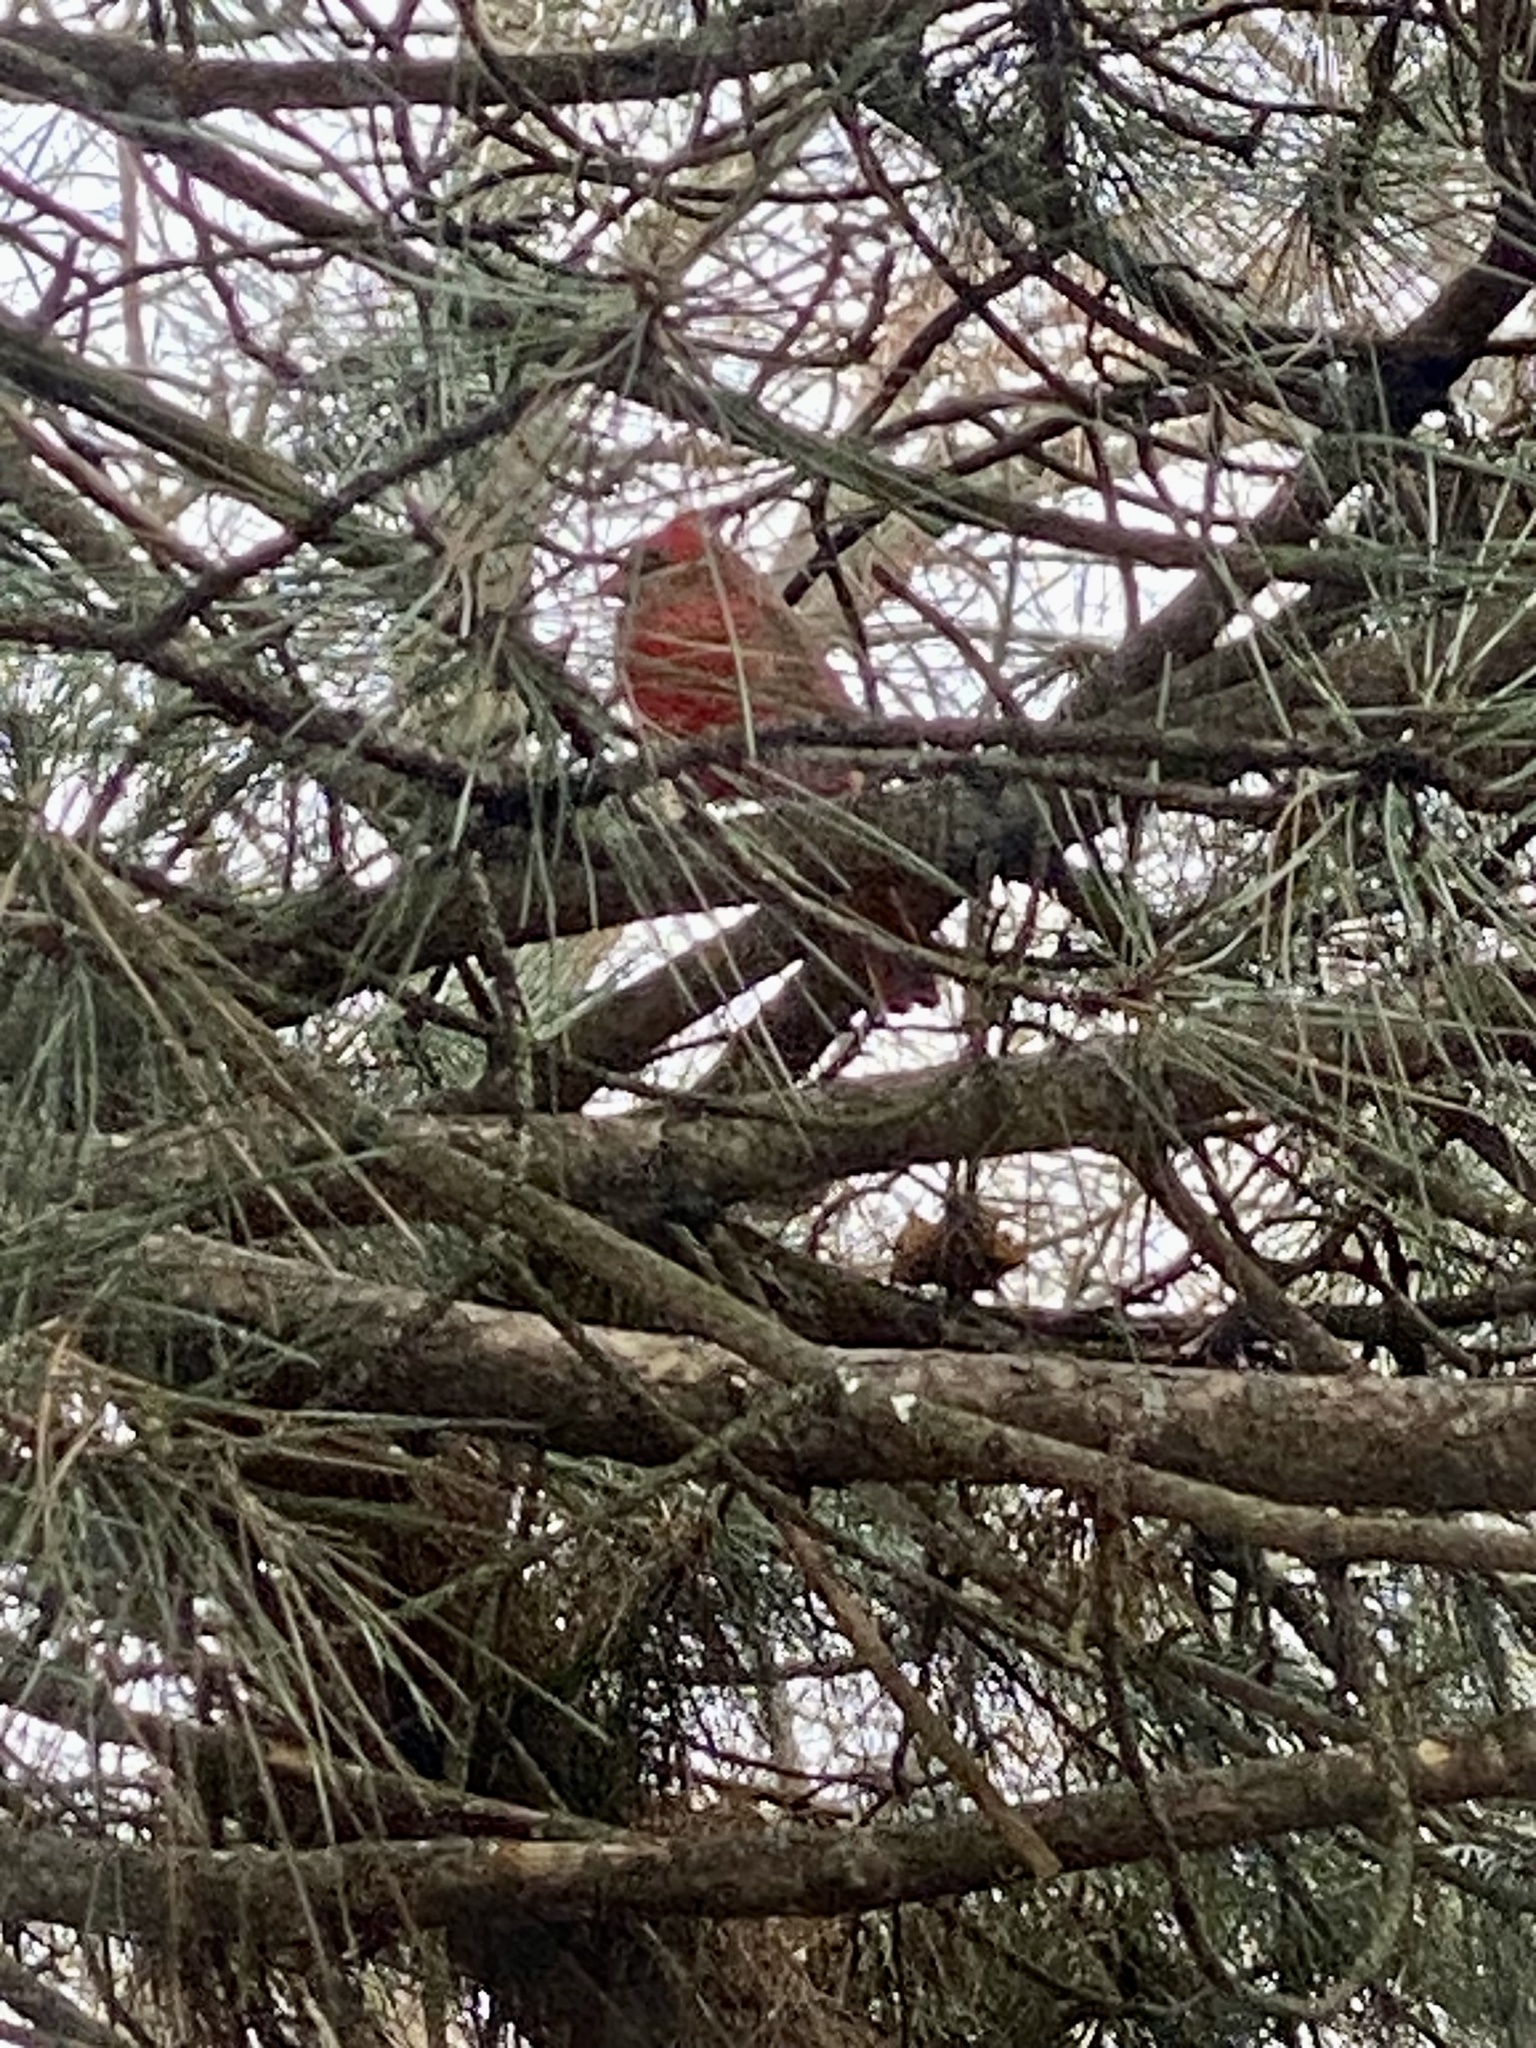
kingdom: Animalia
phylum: Chordata
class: Aves
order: Passeriformes
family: Cardinalidae
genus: Cardinalis
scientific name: Cardinalis cardinalis
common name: Northern cardinal
